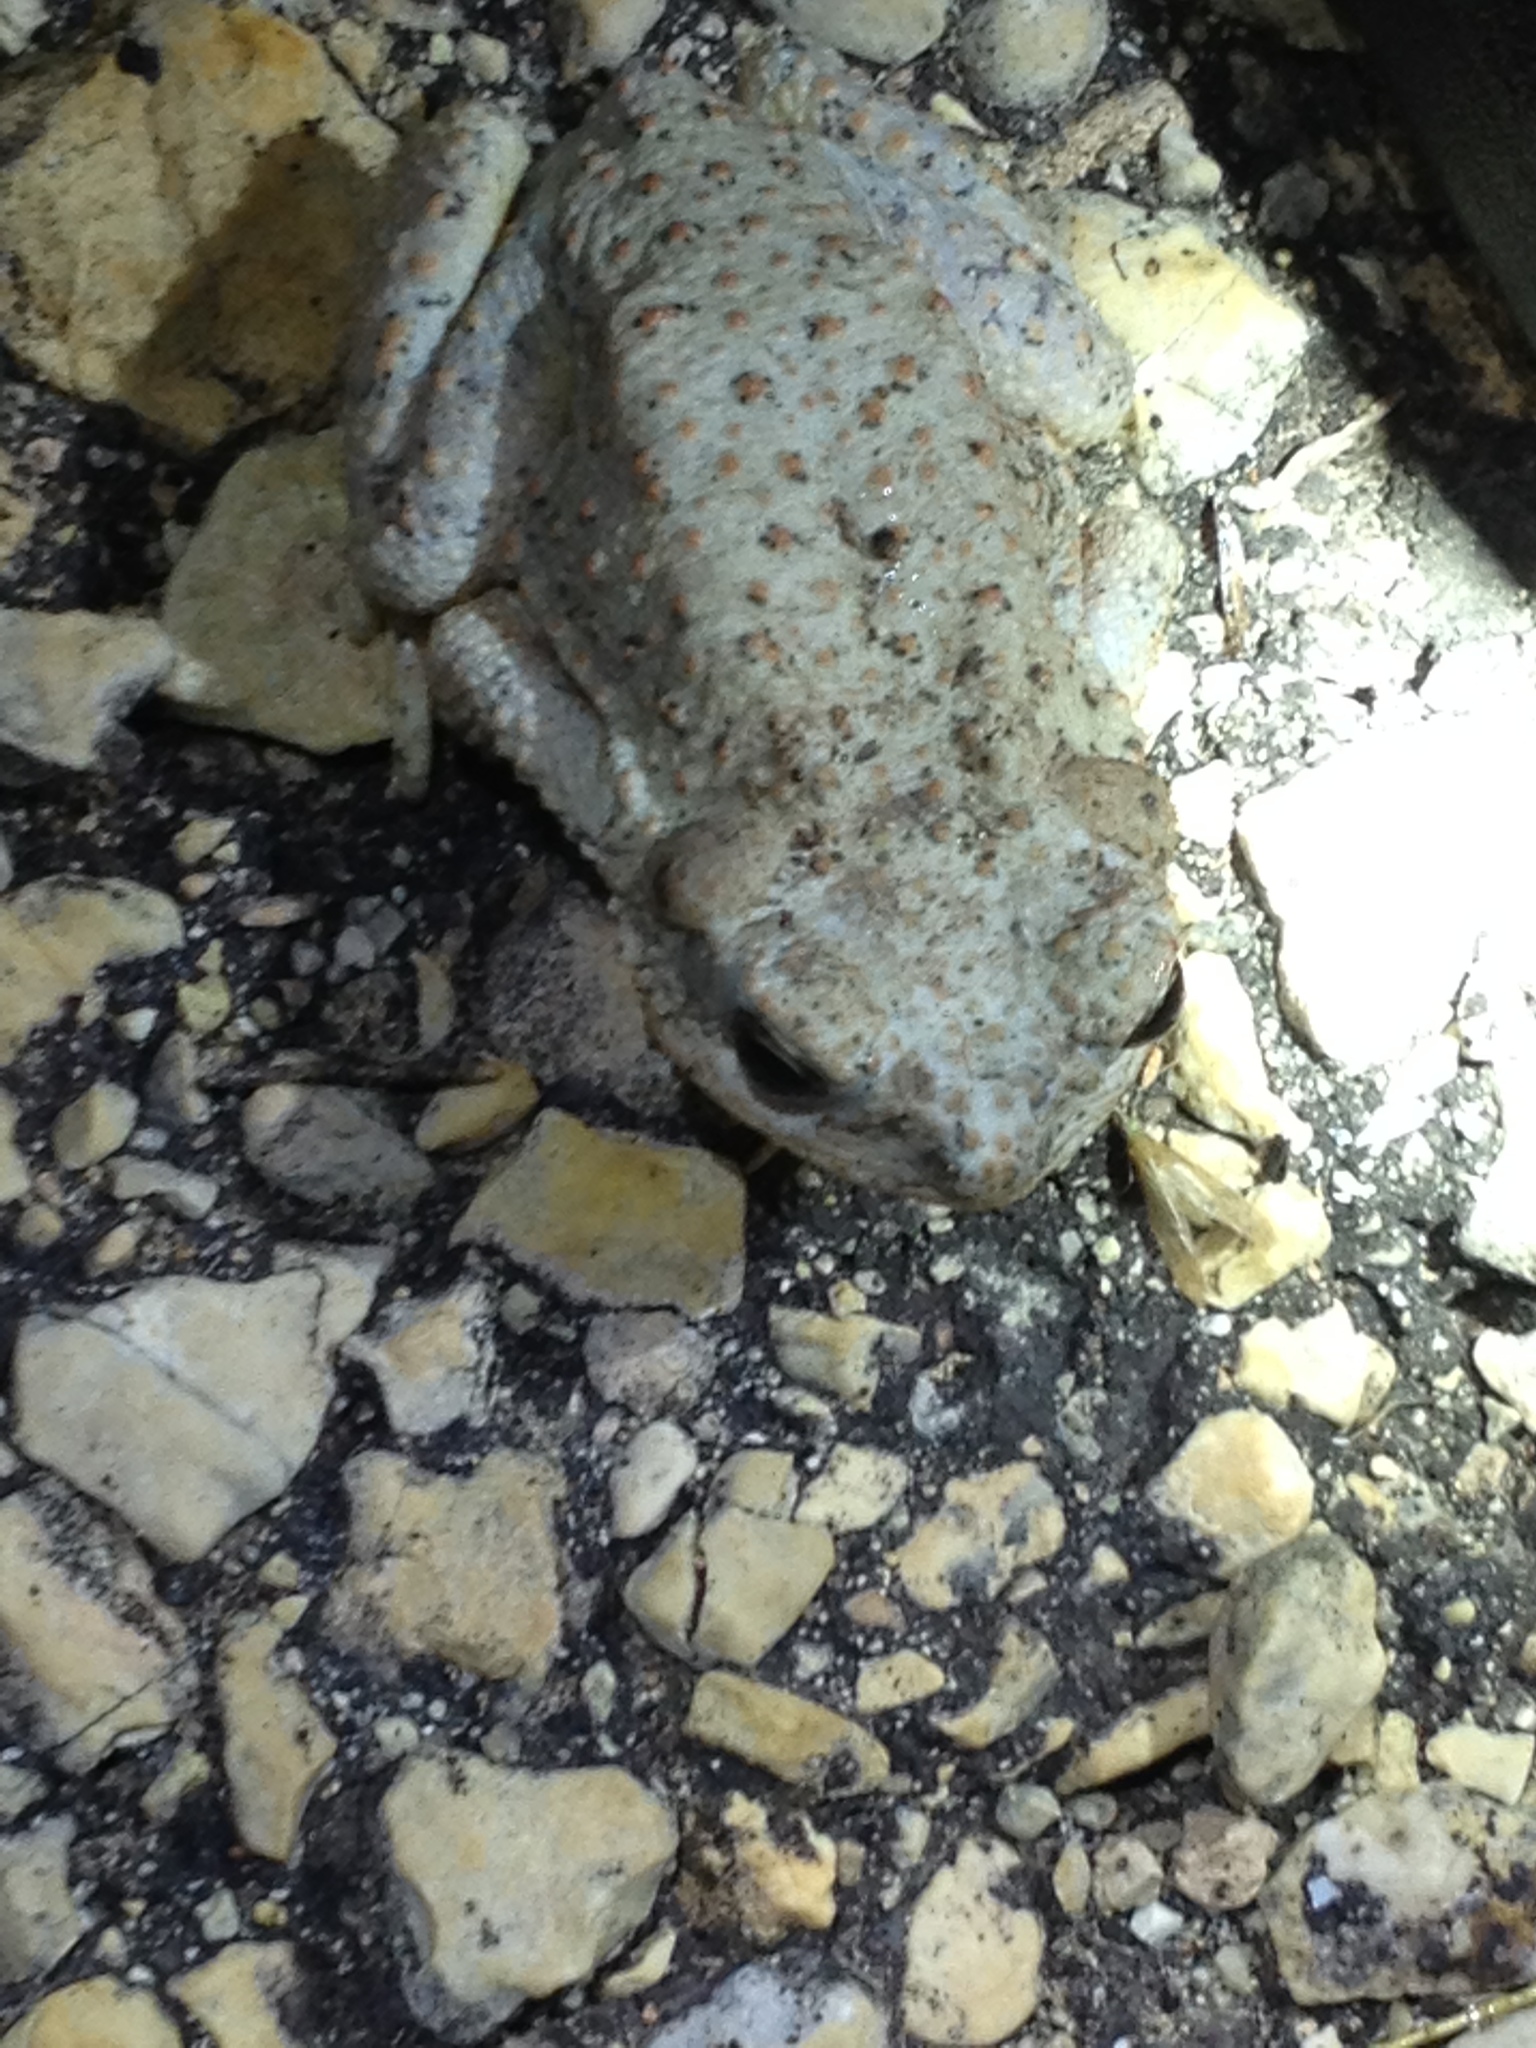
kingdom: Animalia
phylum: Chordata
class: Amphibia
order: Anura
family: Bufonidae
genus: Anaxyrus
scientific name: Anaxyrus punctatus
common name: Red-spotted toad
